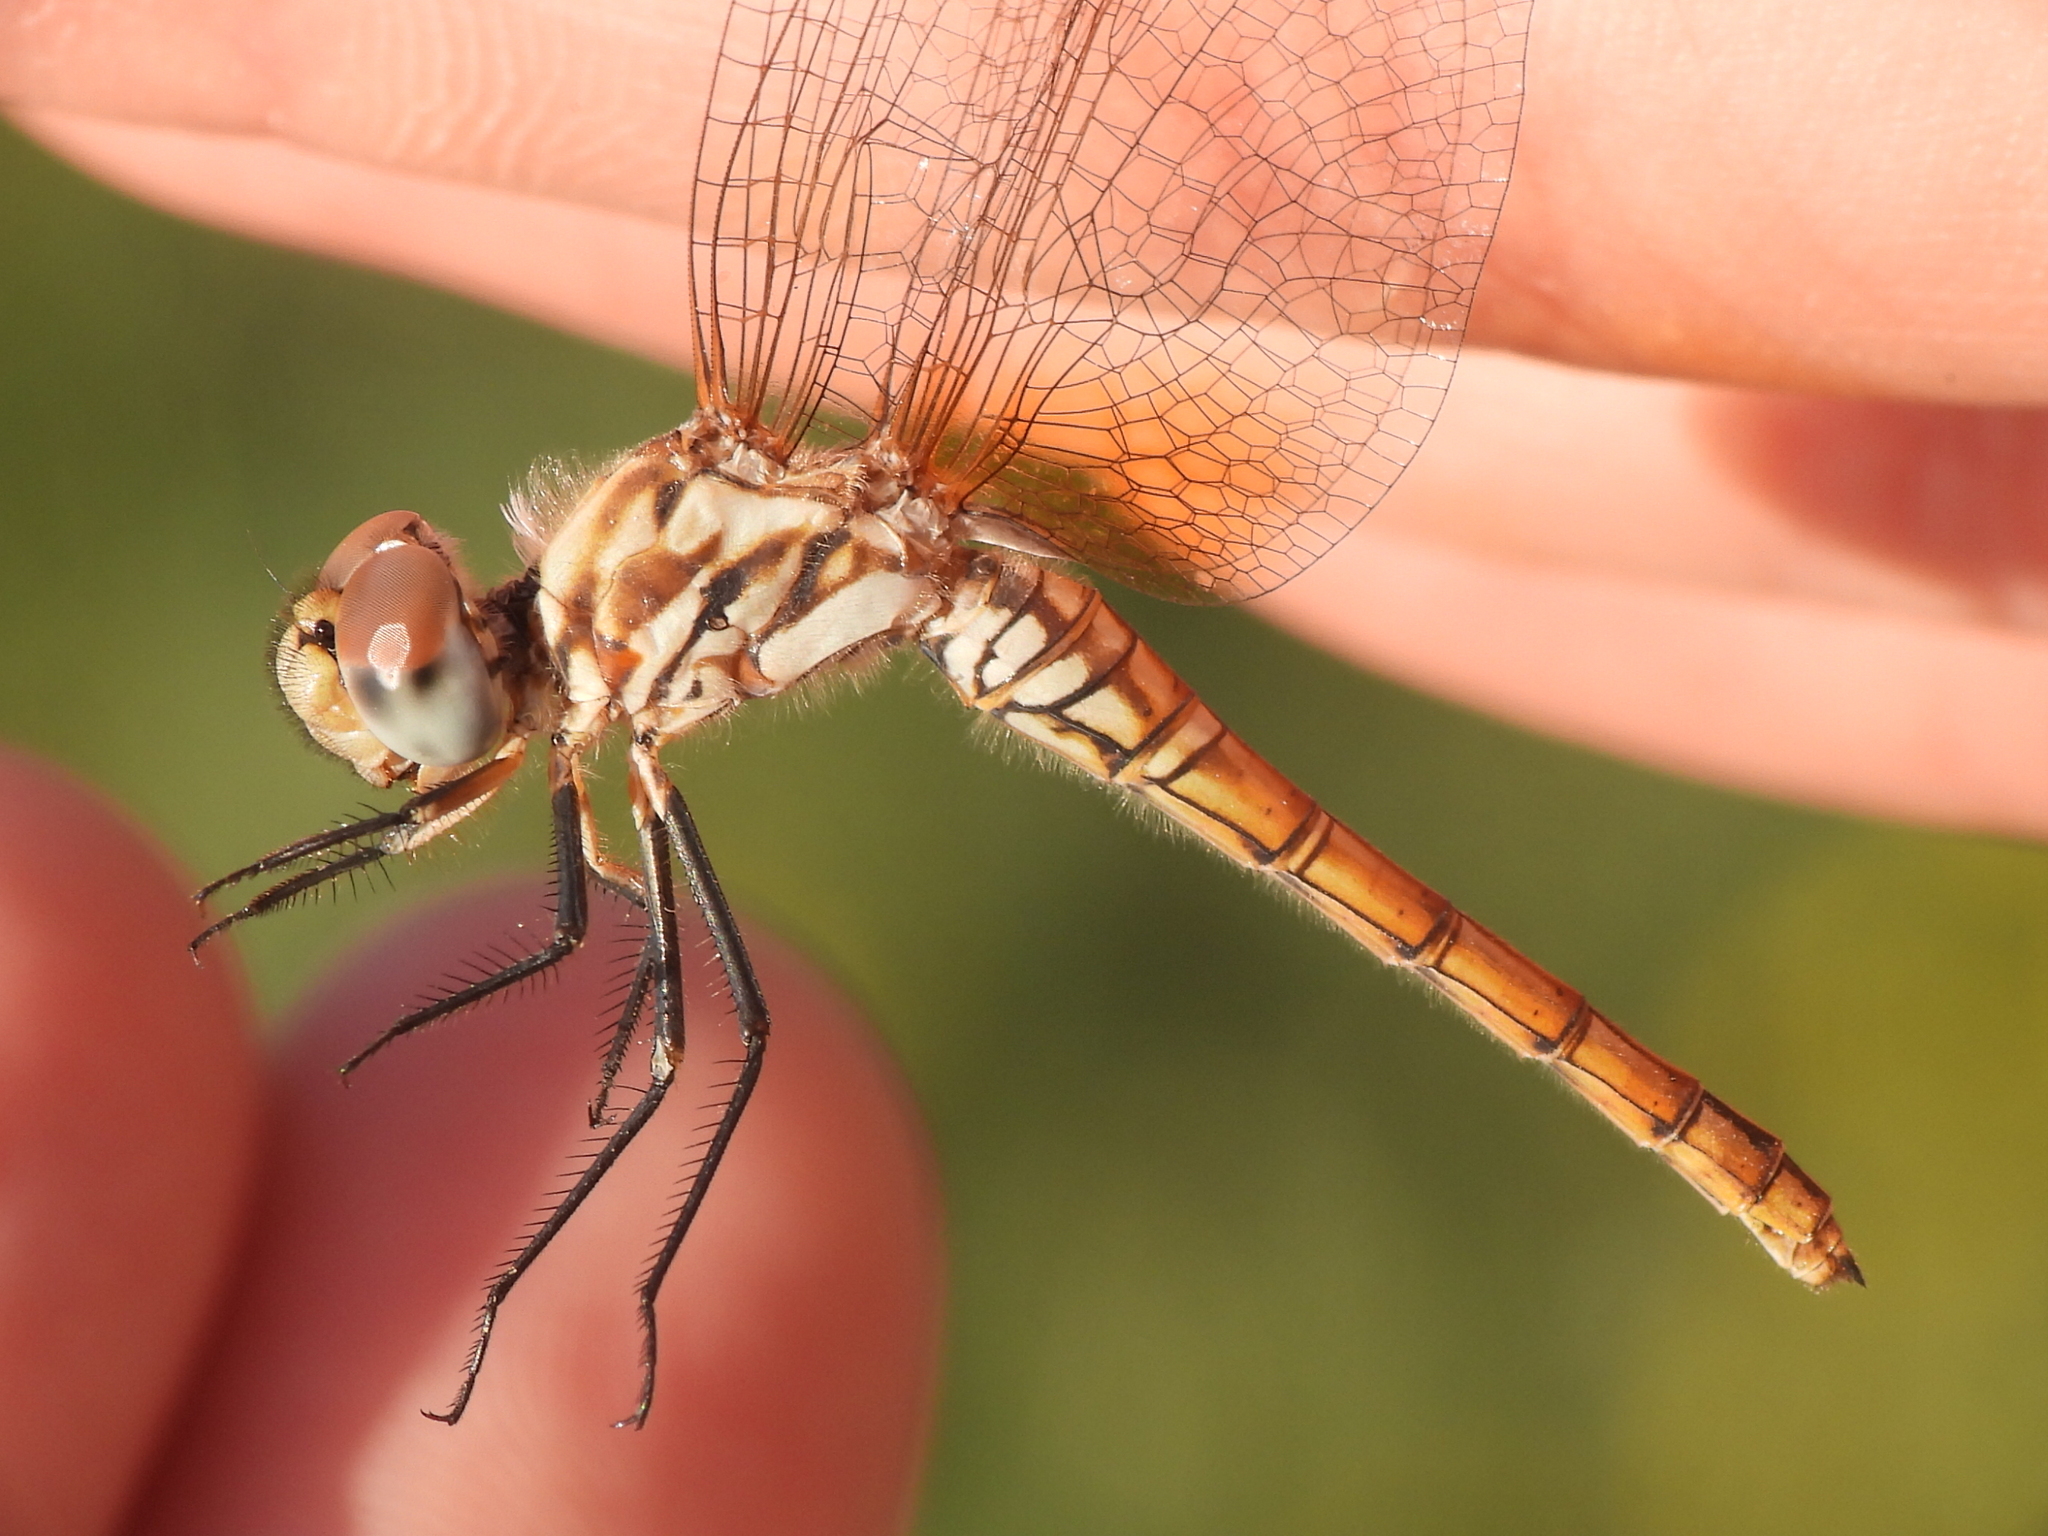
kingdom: Animalia
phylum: Arthropoda
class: Insecta
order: Odonata
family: Libellulidae
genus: Trithemis
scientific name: Trithemis annulata
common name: Violet dropwing
